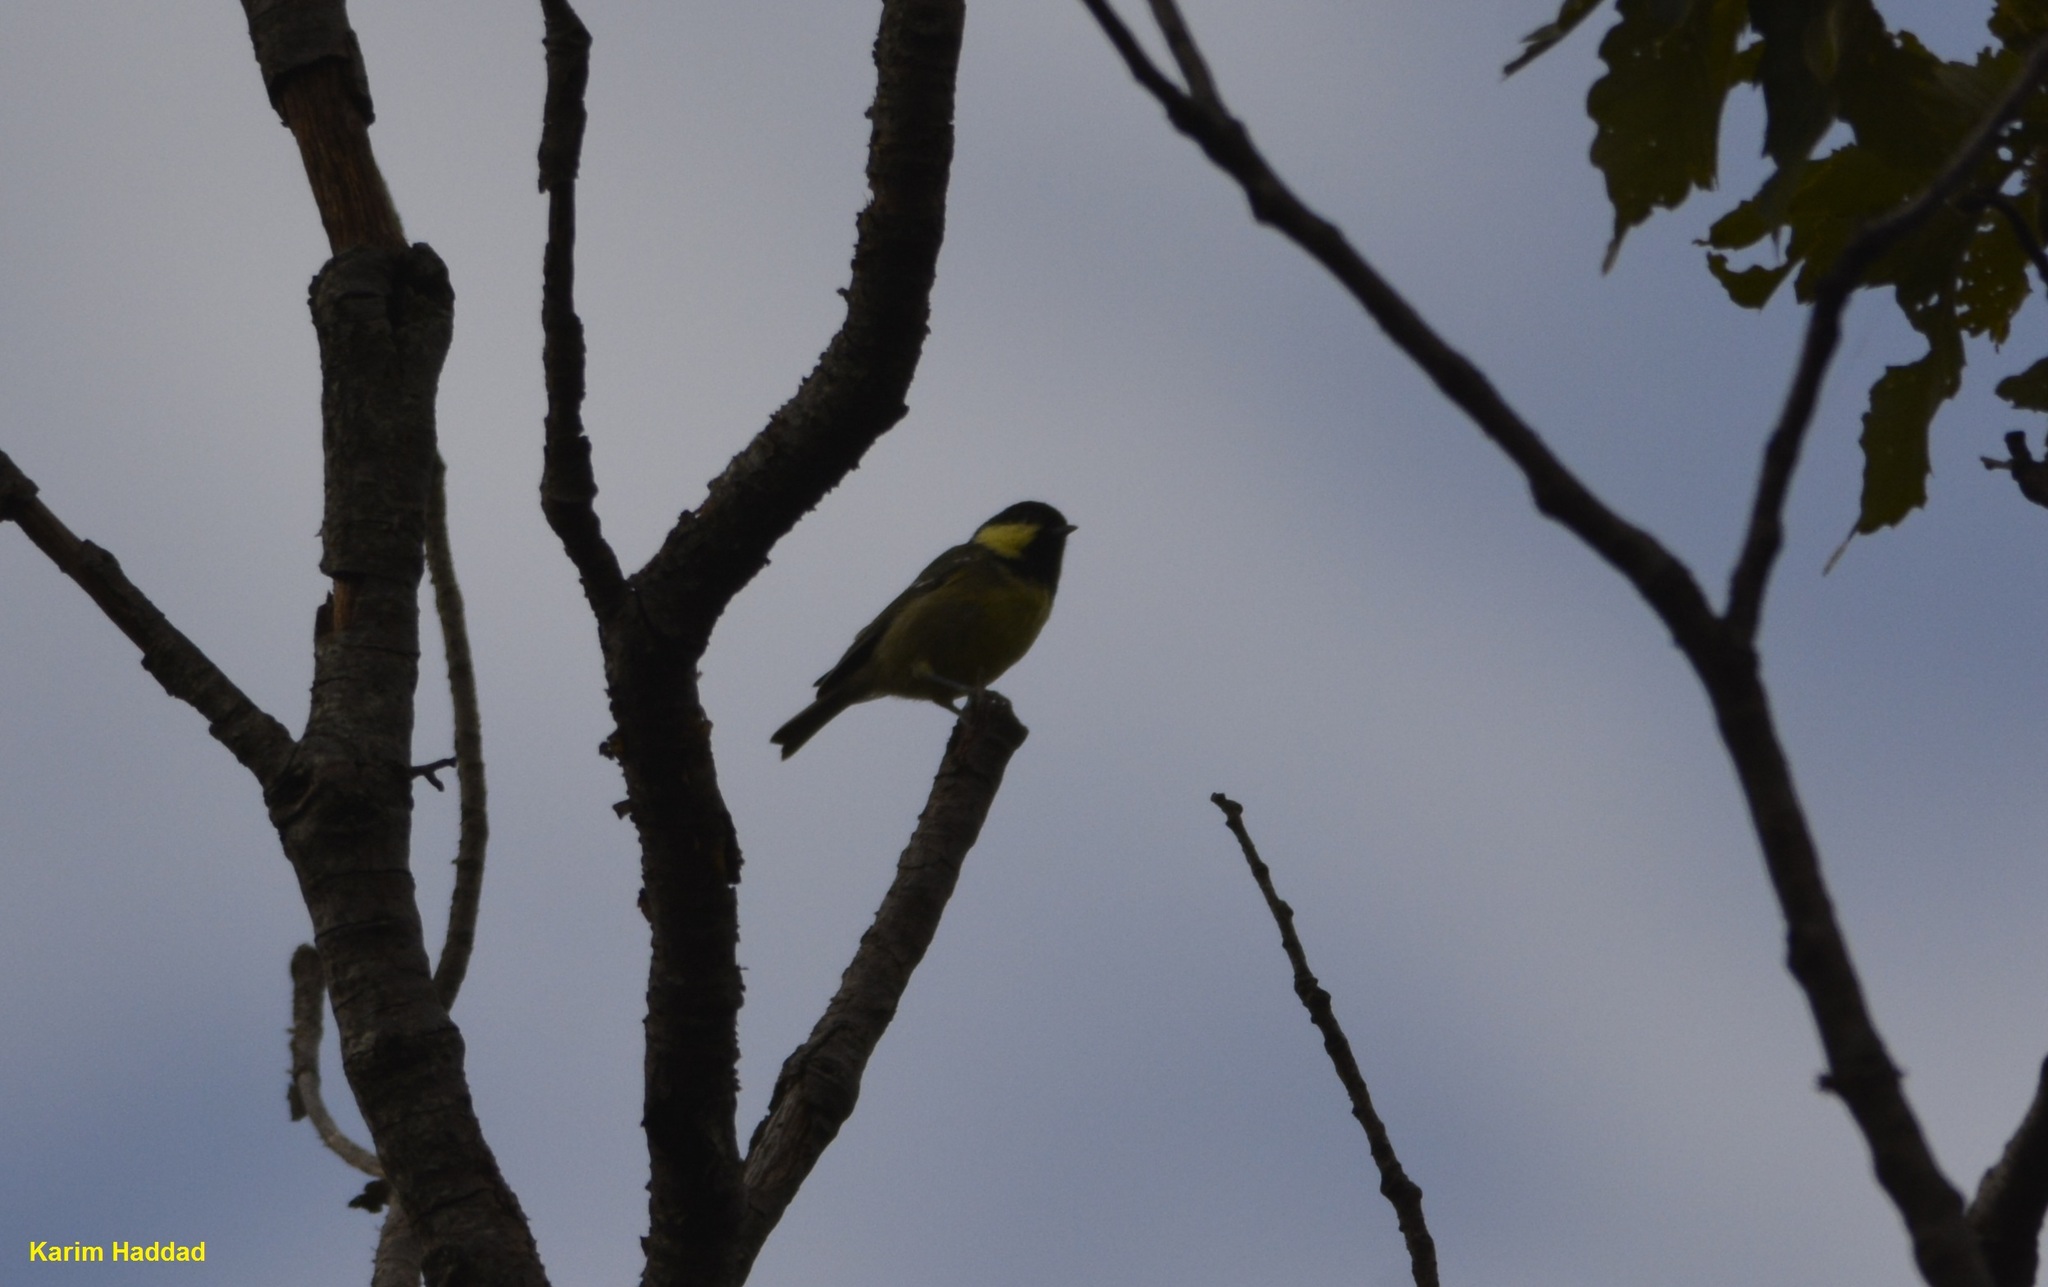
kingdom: Animalia
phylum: Chordata
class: Aves
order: Passeriformes
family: Paridae
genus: Periparus
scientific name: Periparus ater
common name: Coal tit
